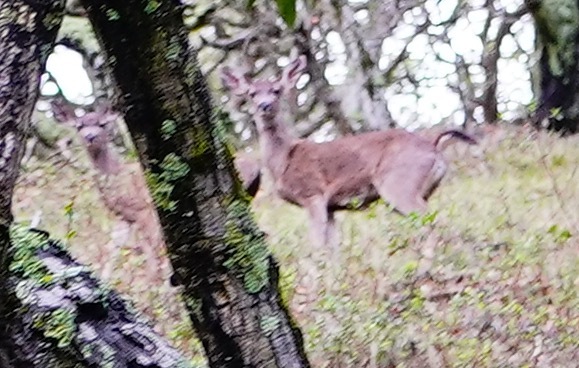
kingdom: Animalia
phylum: Chordata
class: Mammalia
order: Artiodactyla
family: Cervidae
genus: Odocoileus
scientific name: Odocoileus hemionus
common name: Mule deer
